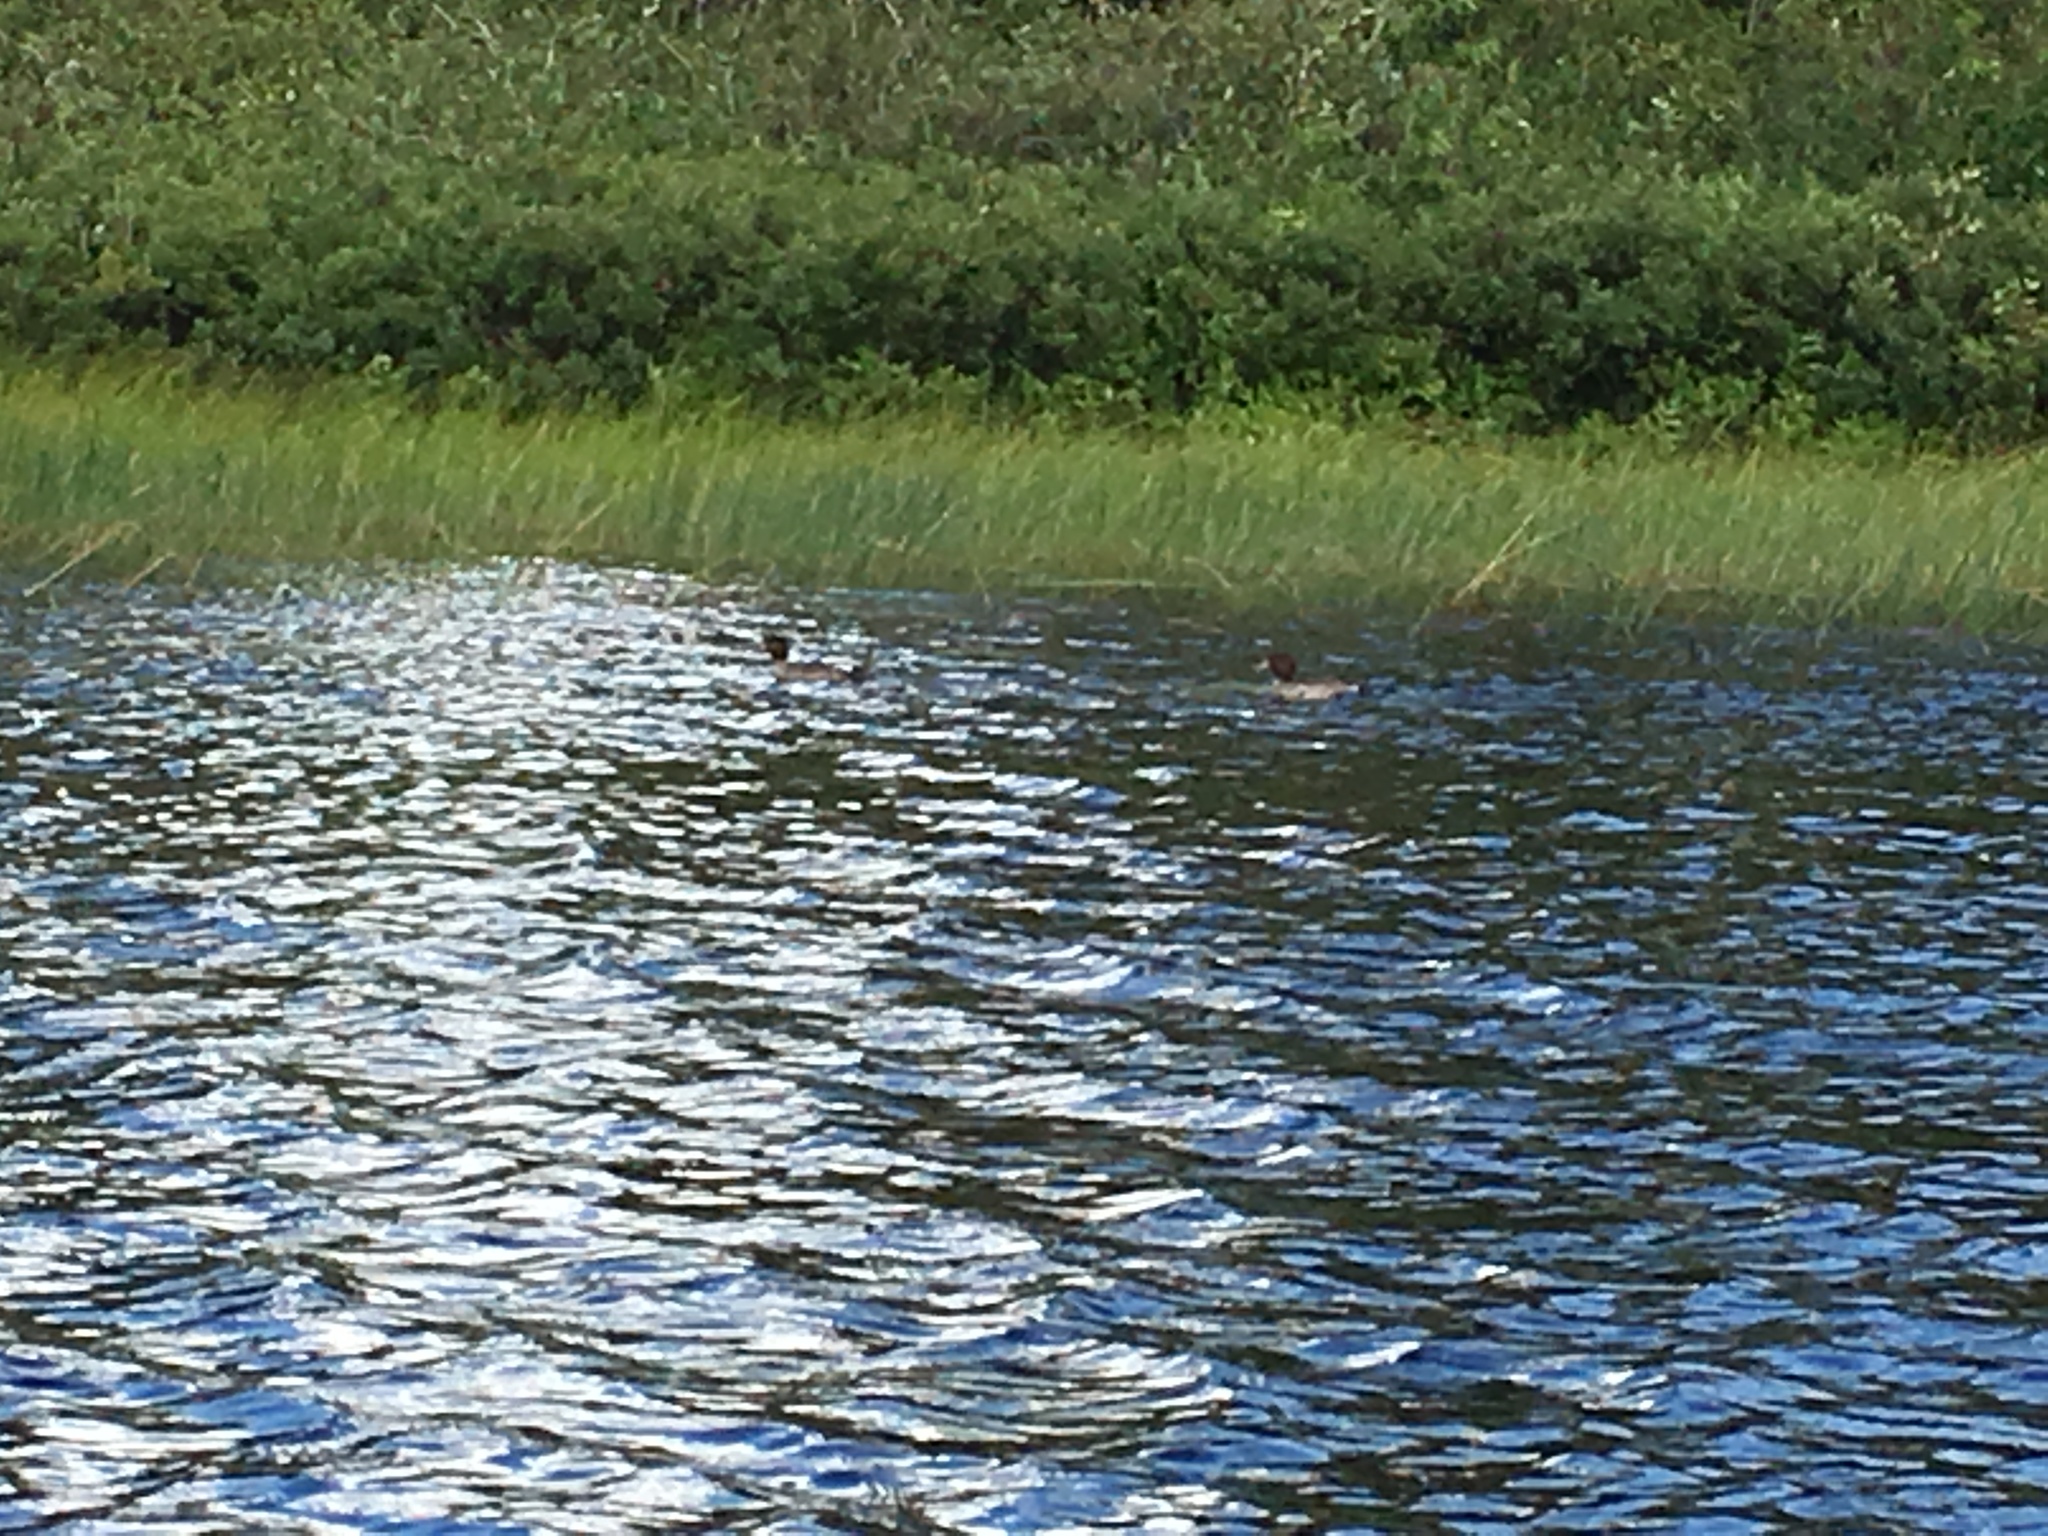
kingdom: Animalia
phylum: Chordata
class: Aves
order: Anseriformes
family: Anatidae
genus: Bucephala
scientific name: Bucephala clangula
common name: Common goldeneye
